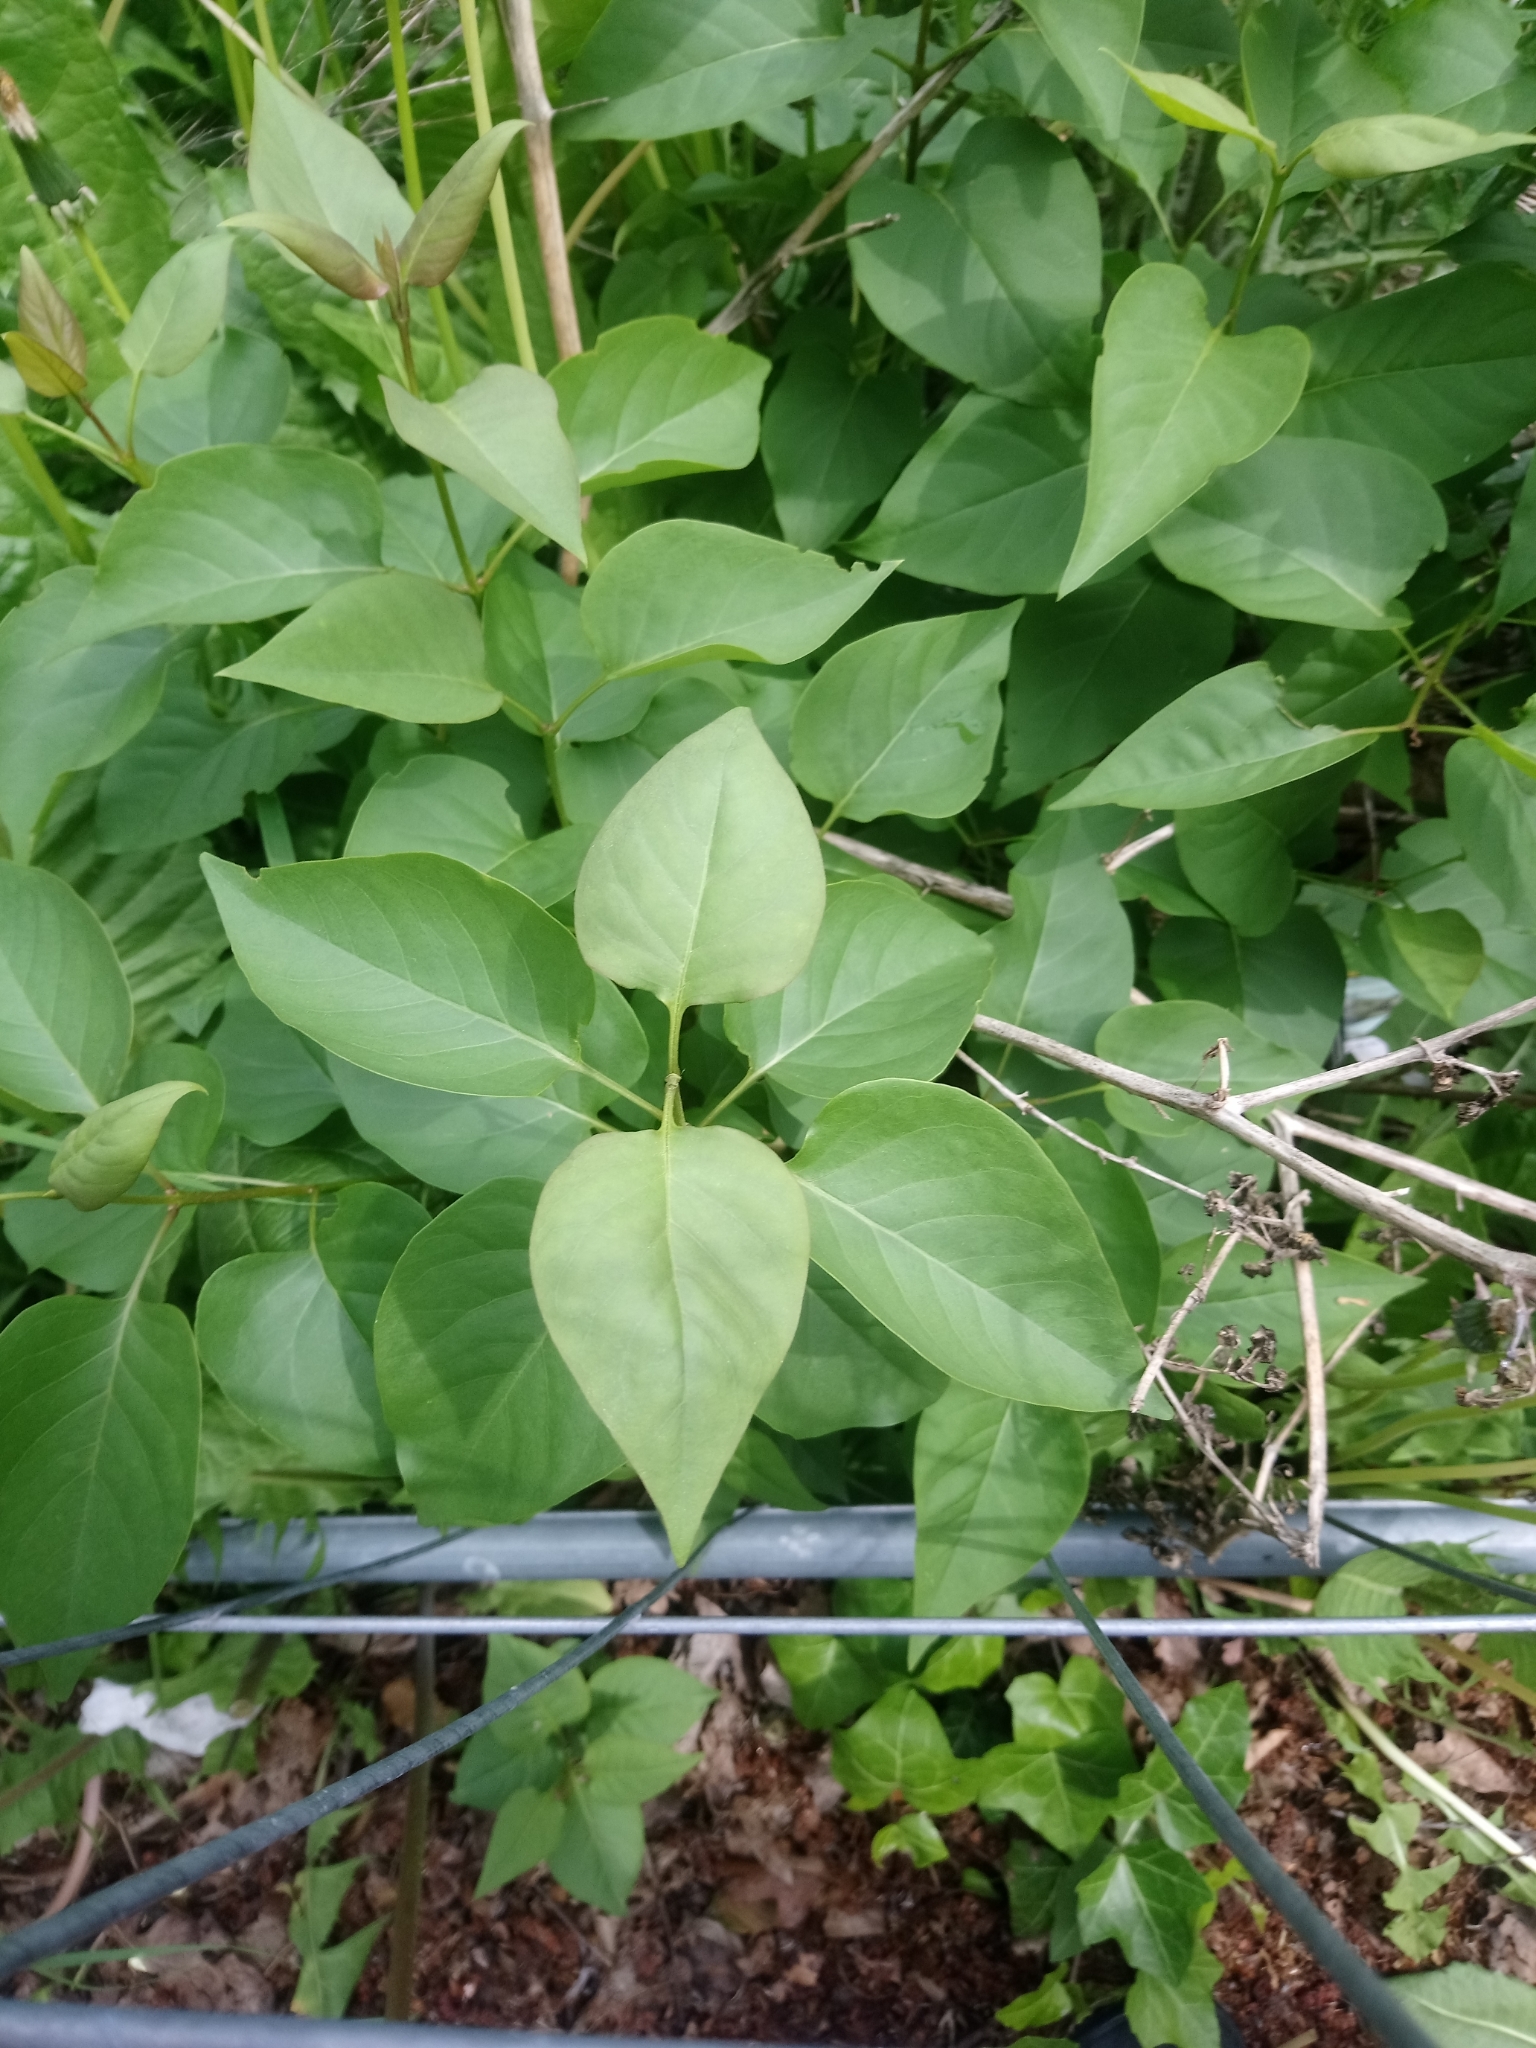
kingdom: Plantae
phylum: Tracheophyta
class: Magnoliopsida
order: Lamiales
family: Oleaceae
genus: Syringa
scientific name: Syringa vulgaris
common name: Common lilac
